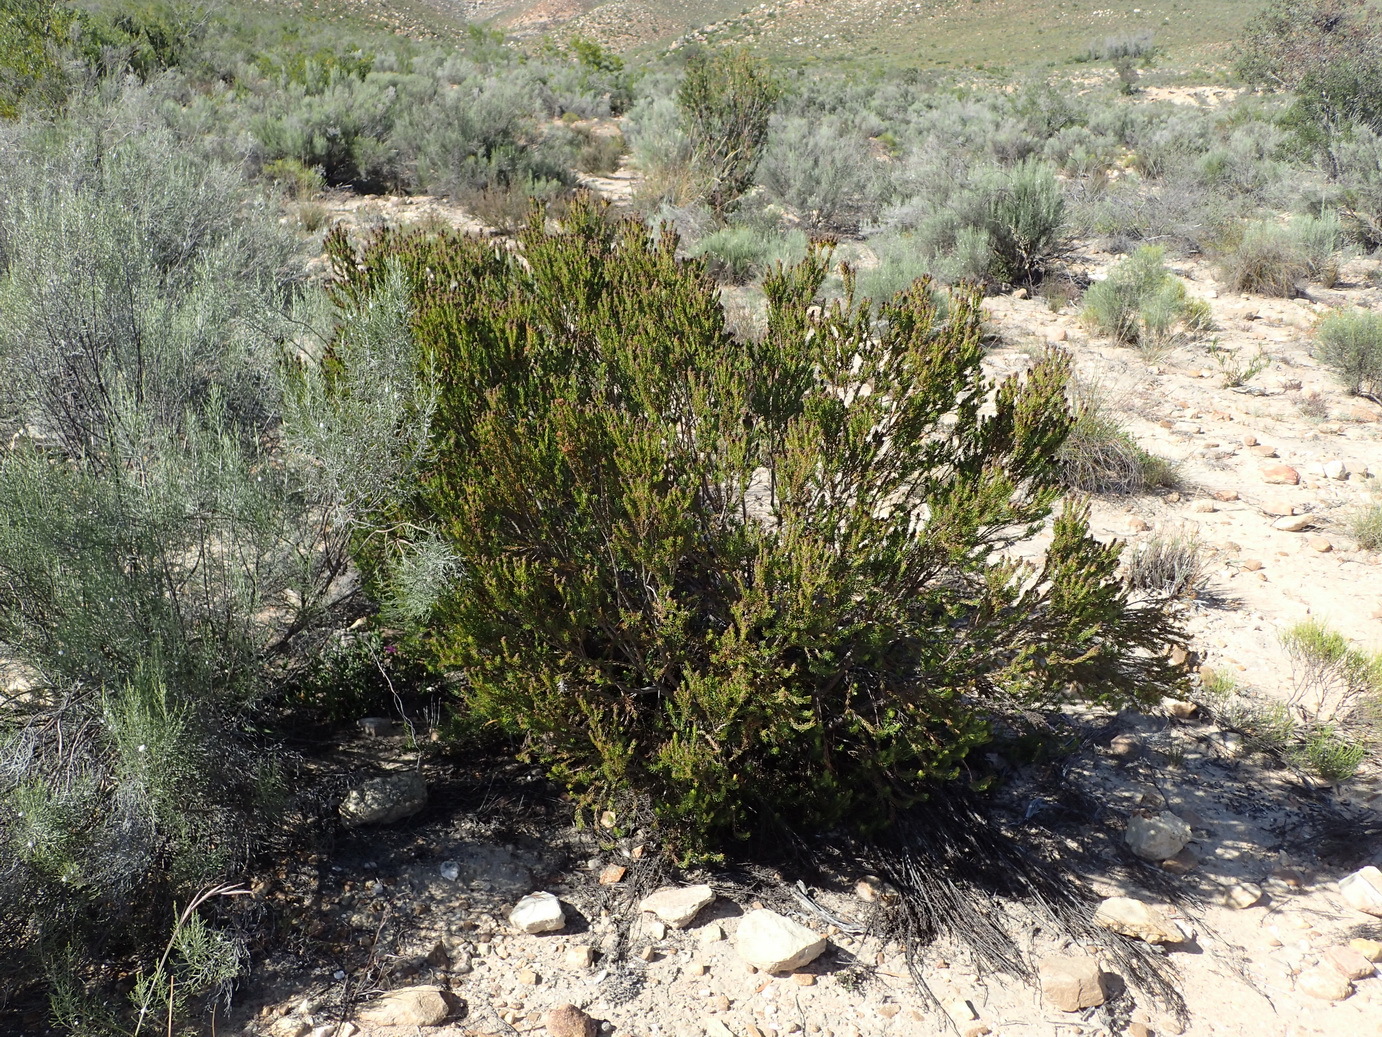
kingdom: Plantae
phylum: Tracheophyta
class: Magnoliopsida
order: Proteales
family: Proteaceae
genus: Leucadendron
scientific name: Leucadendron teretifolium
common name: Needle-leaf conebush
